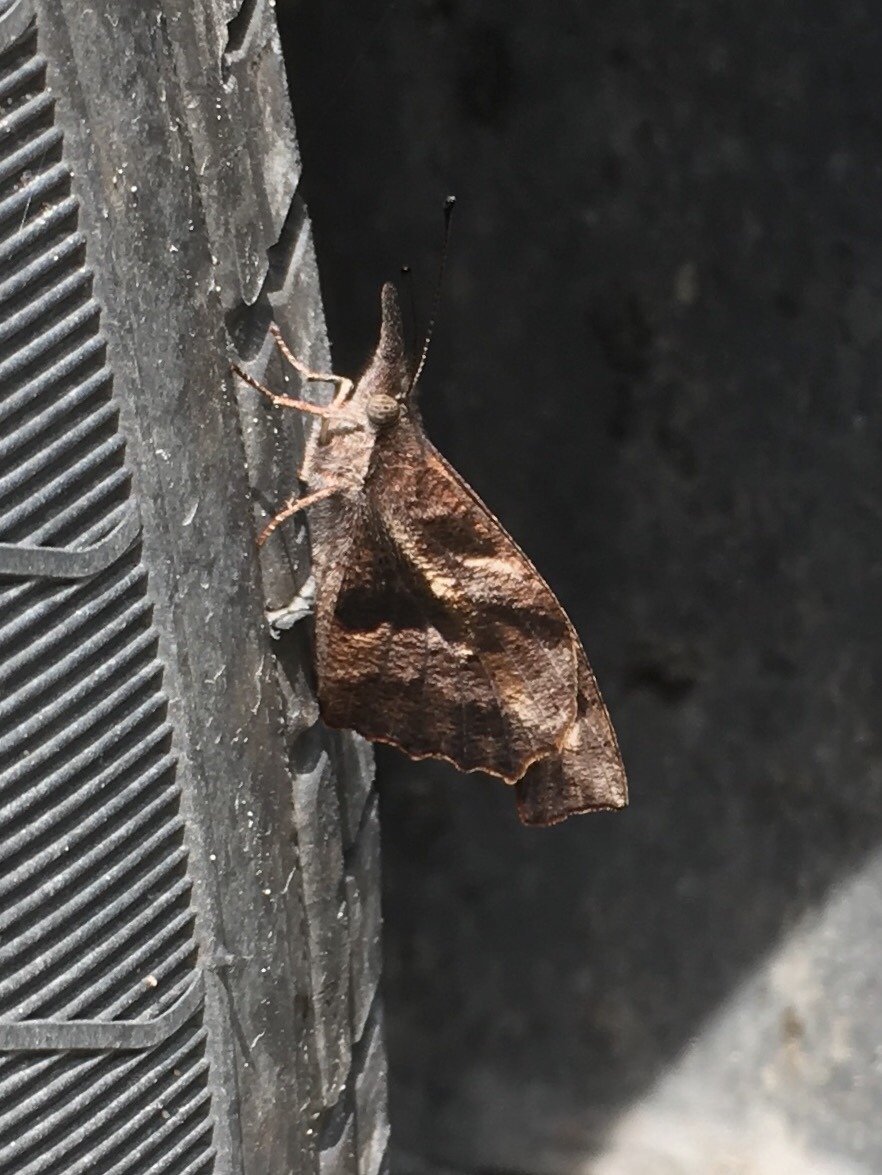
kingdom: Animalia
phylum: Arthropoda
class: Insecta
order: Lepidoptera
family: Nymphalidae
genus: Libytheana
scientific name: Libytheana carinenta
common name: American snout
